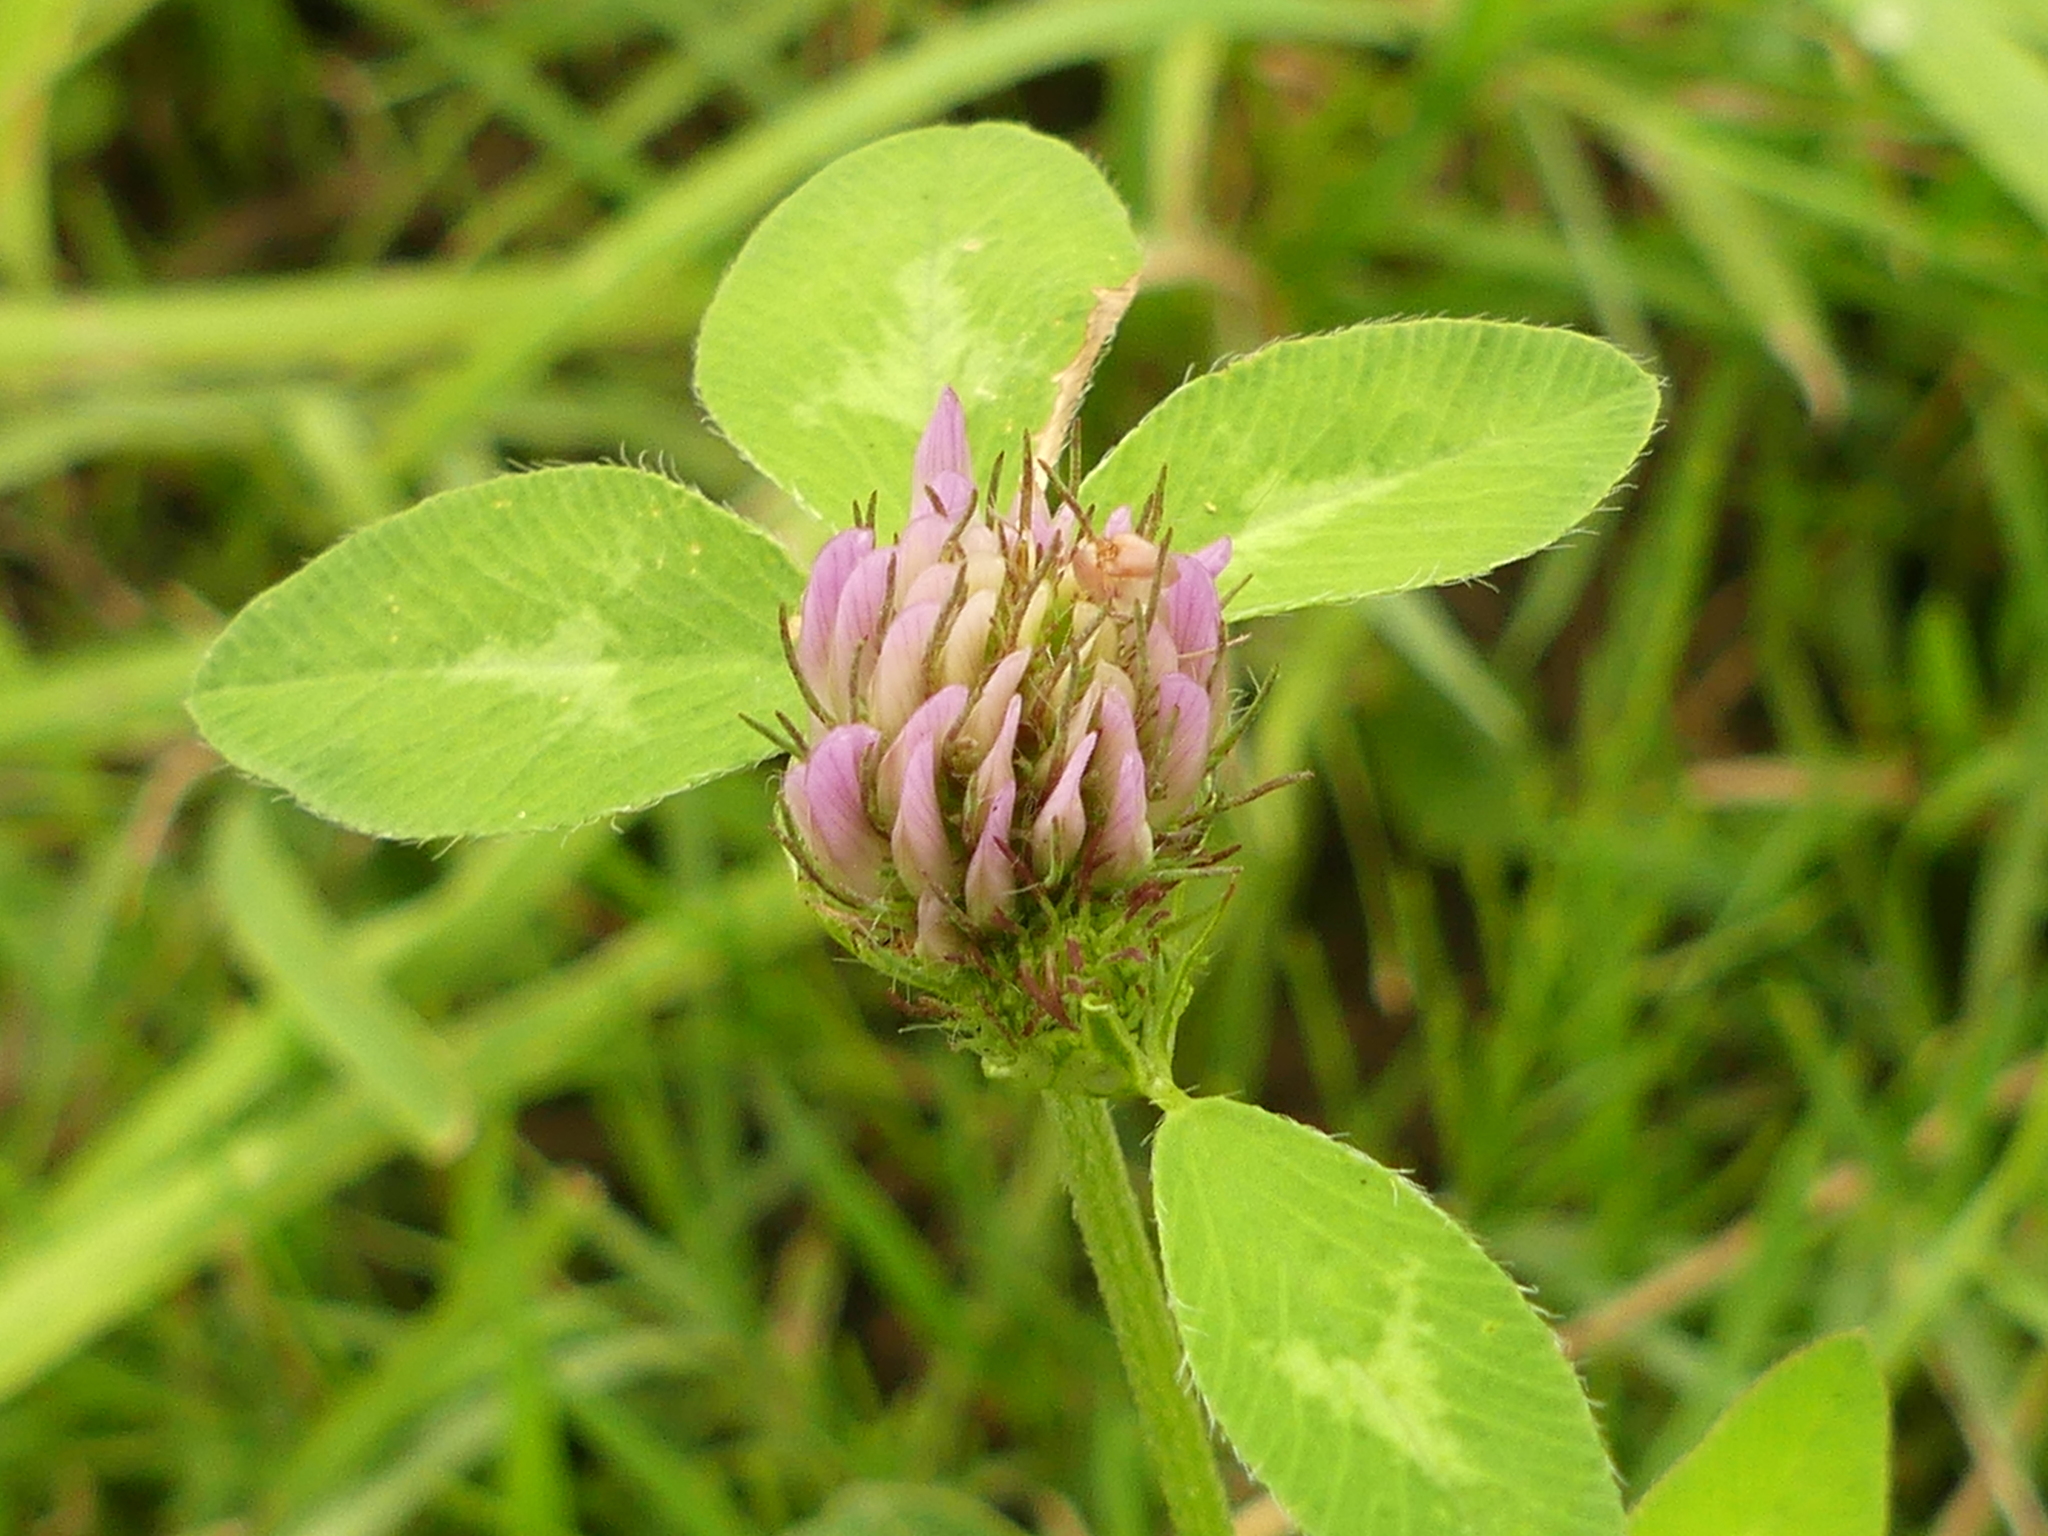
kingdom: Plantae
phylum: Tracheophyta
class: Magnoliopsida
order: Fabales
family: Fabaceae
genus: Trifolium
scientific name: Trifolium pratense
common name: Red clover
